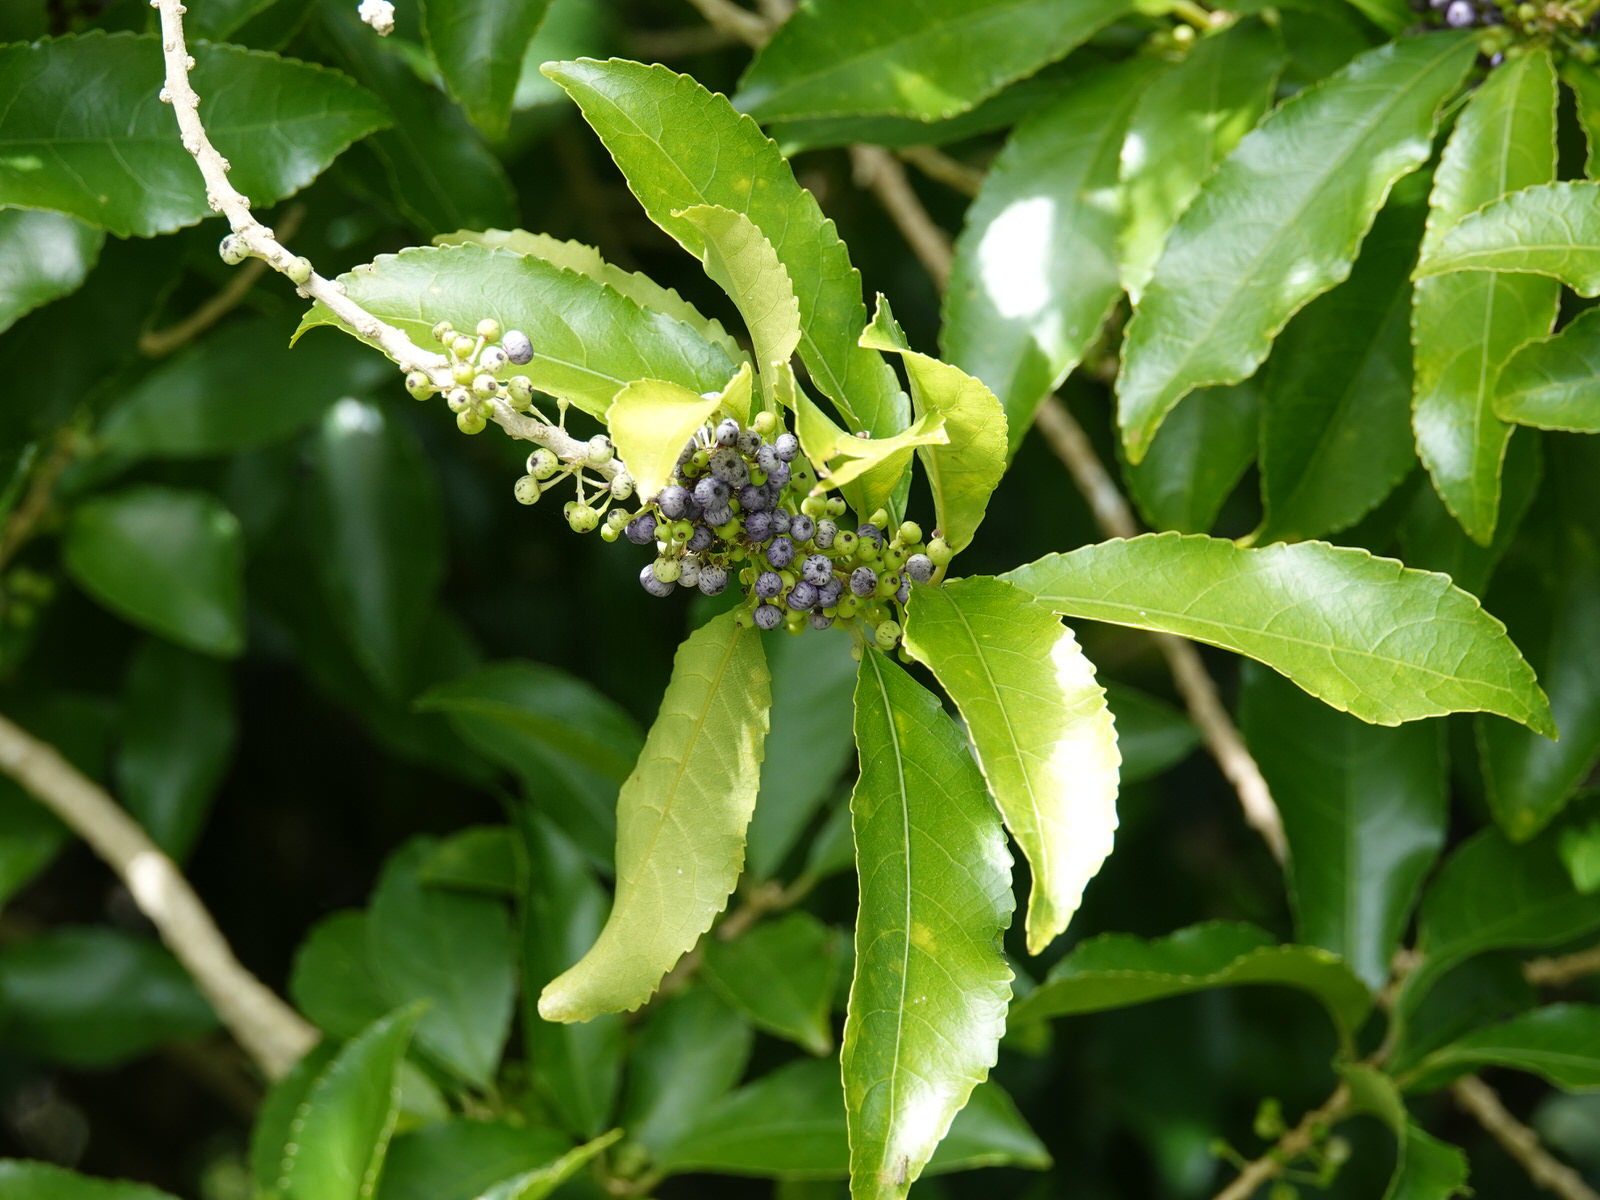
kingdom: Plantae
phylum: Tracheophyta
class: Magnoliopsida
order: Malpighiales
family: Violaceae
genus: Melicytus
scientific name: Melicytus ramiflorus
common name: Mahoe
